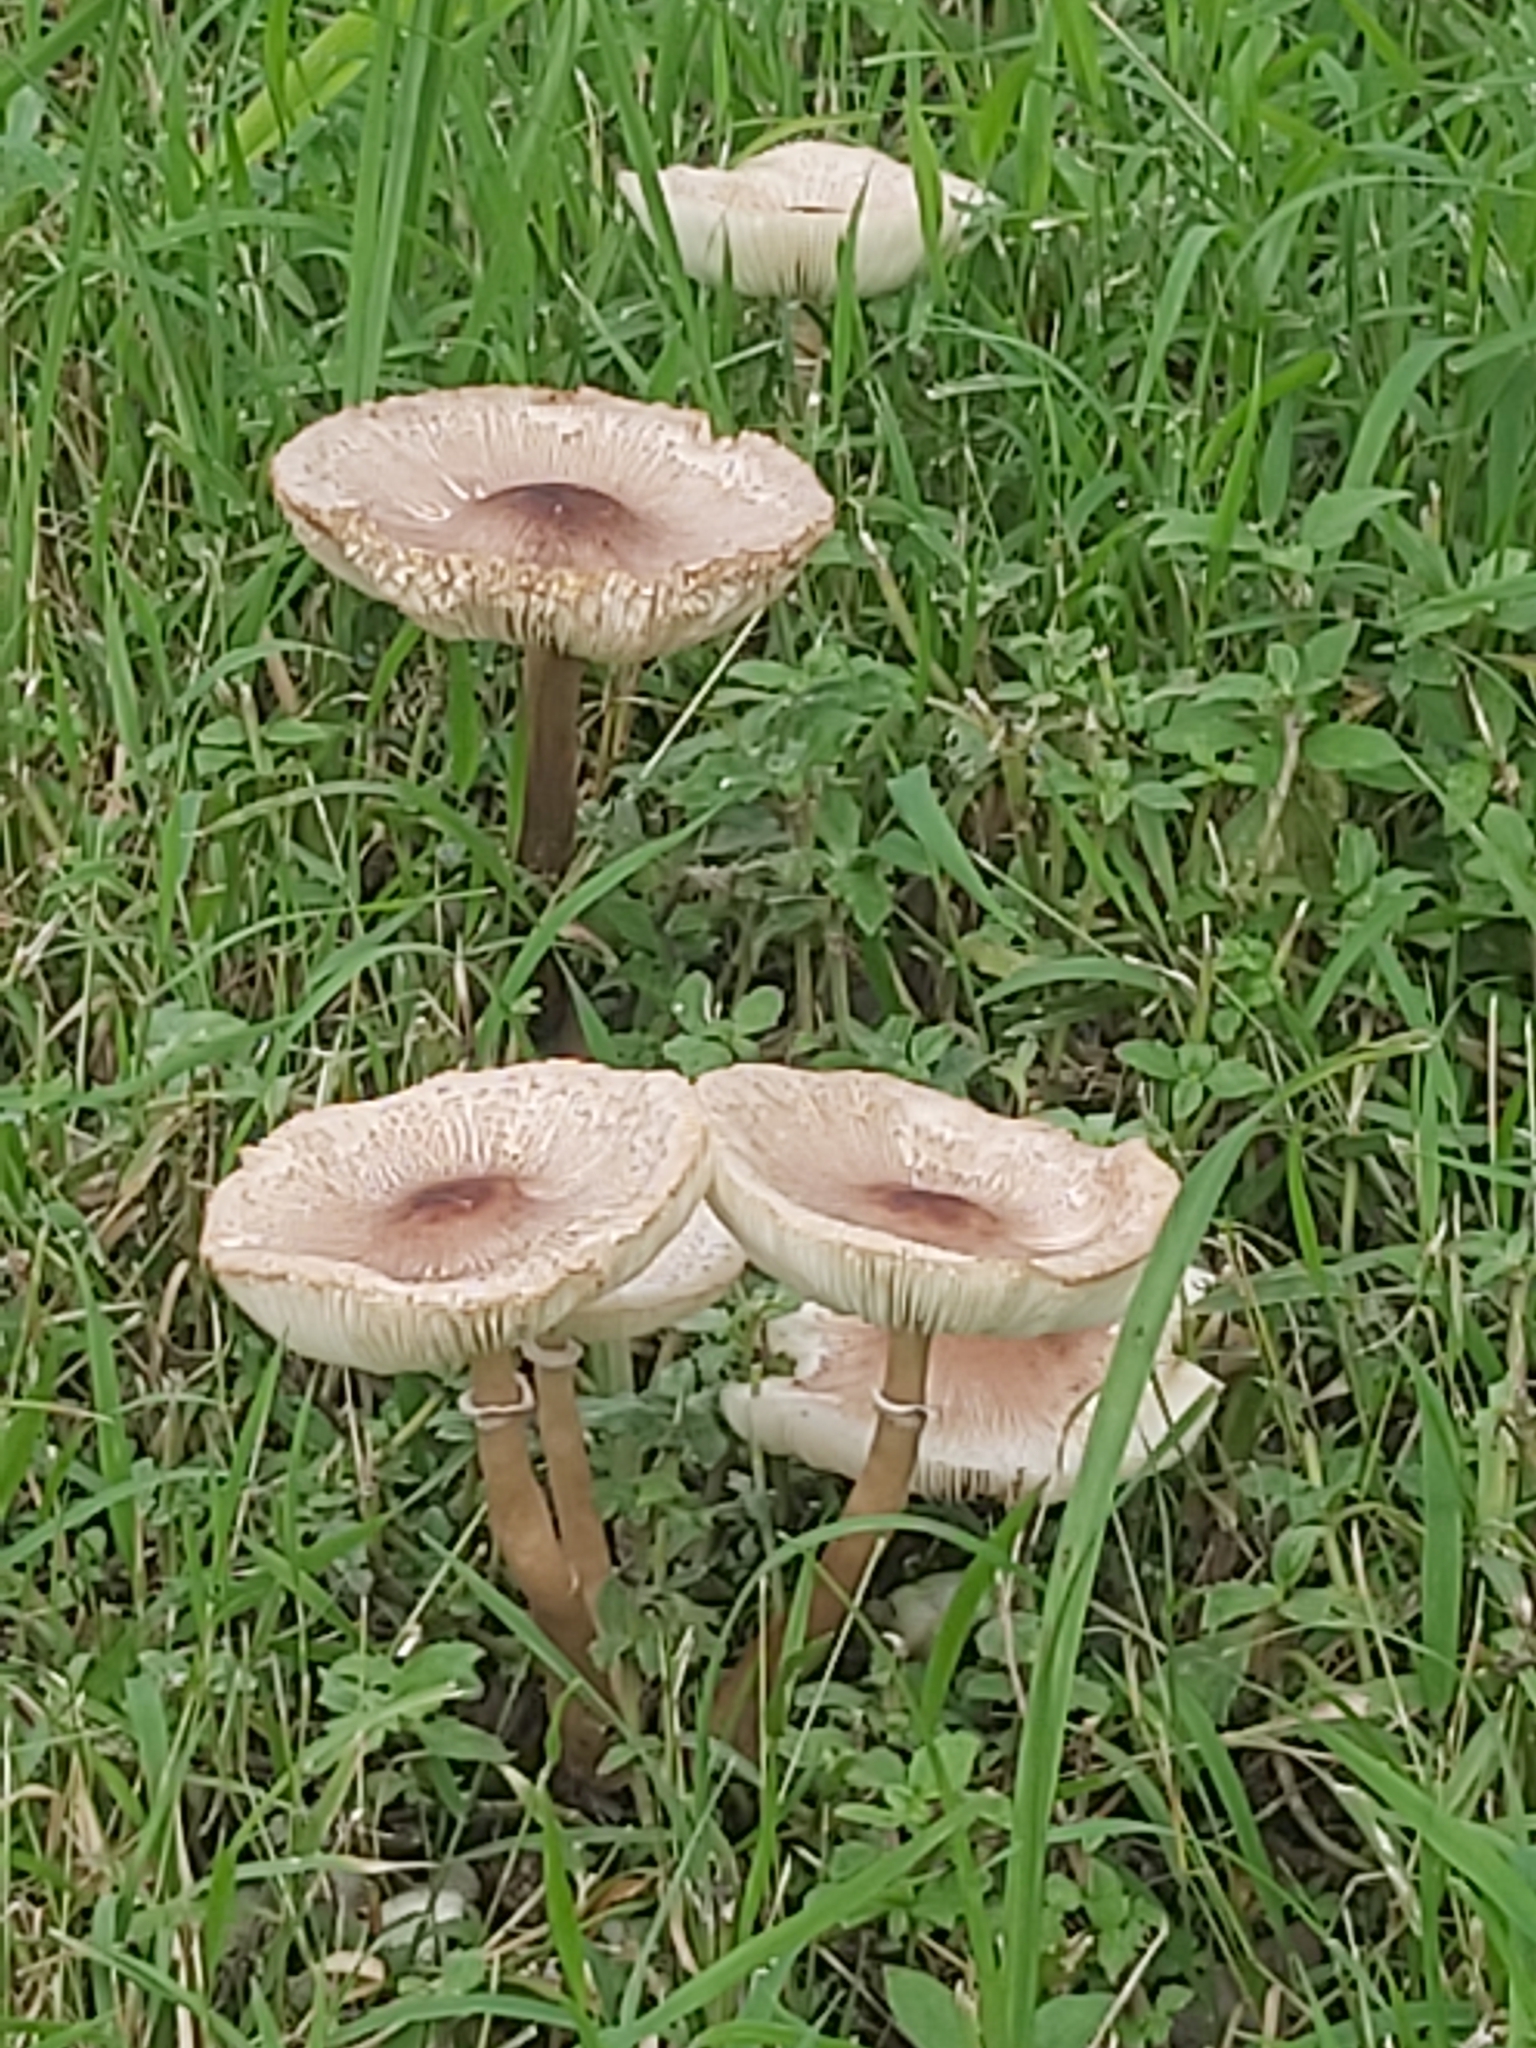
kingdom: Fungi
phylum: Basidiomycota
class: Agaricomycetes
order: Agaricales
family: Agaricaceae
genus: Chlorophyllum
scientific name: Chlorophyllum molybdites
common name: False parasol
